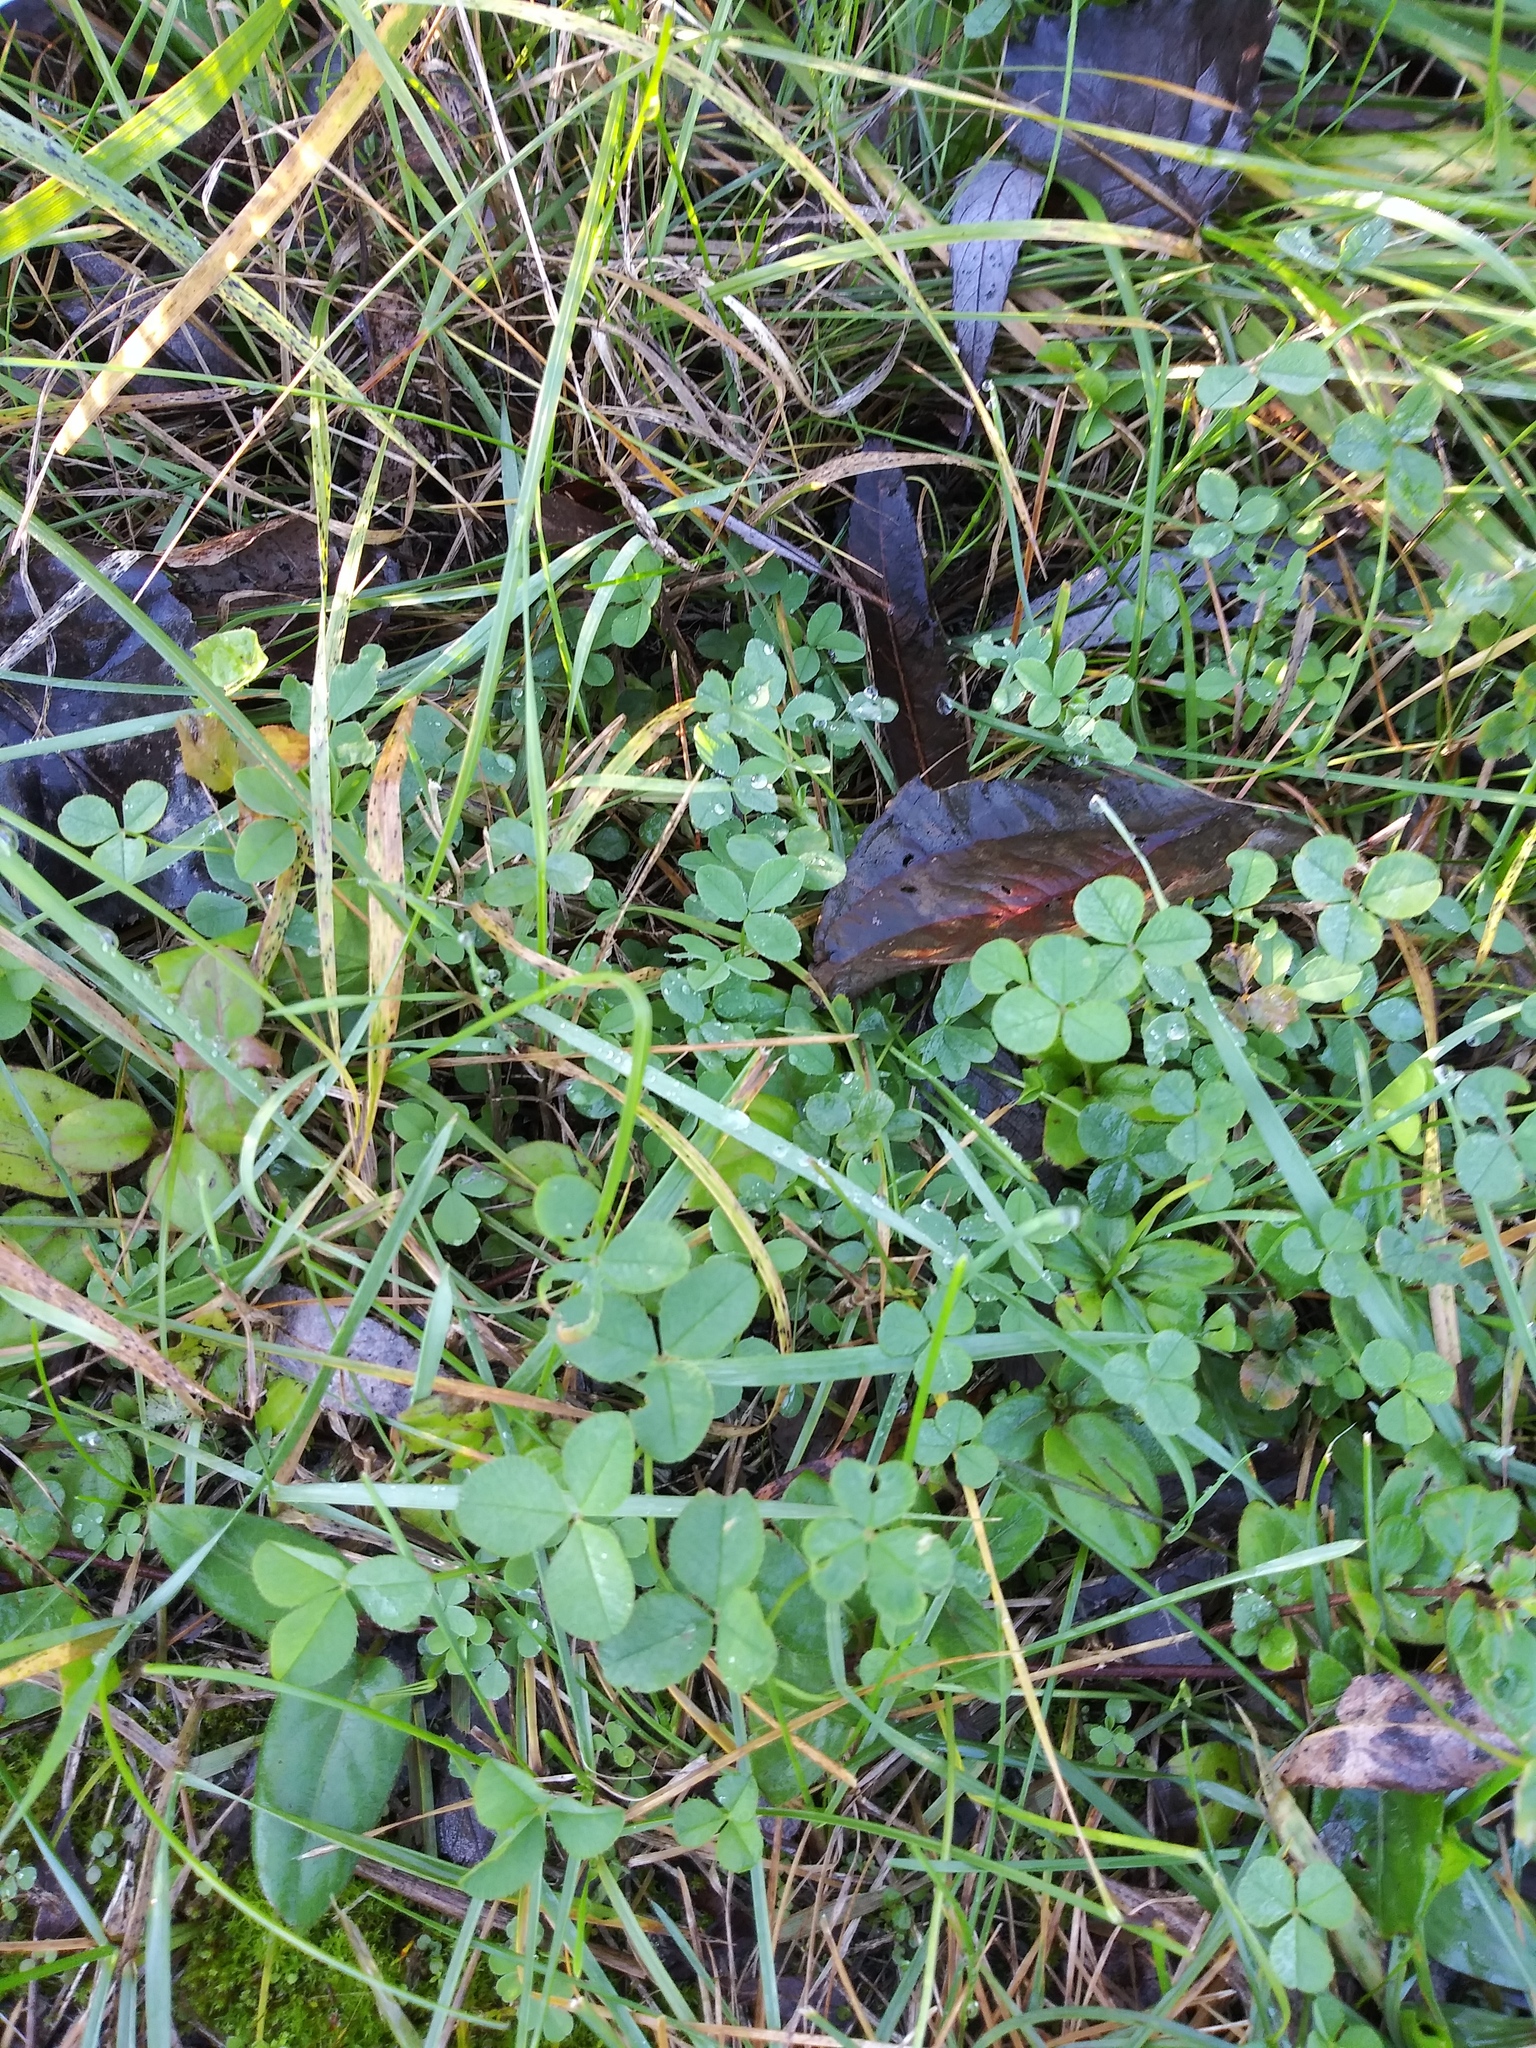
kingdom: Plantae
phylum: Tracheophyta
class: Magnoliopsida
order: Fabales
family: Fabaceae
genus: Trifolium
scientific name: Trifolium repens
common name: White clover
